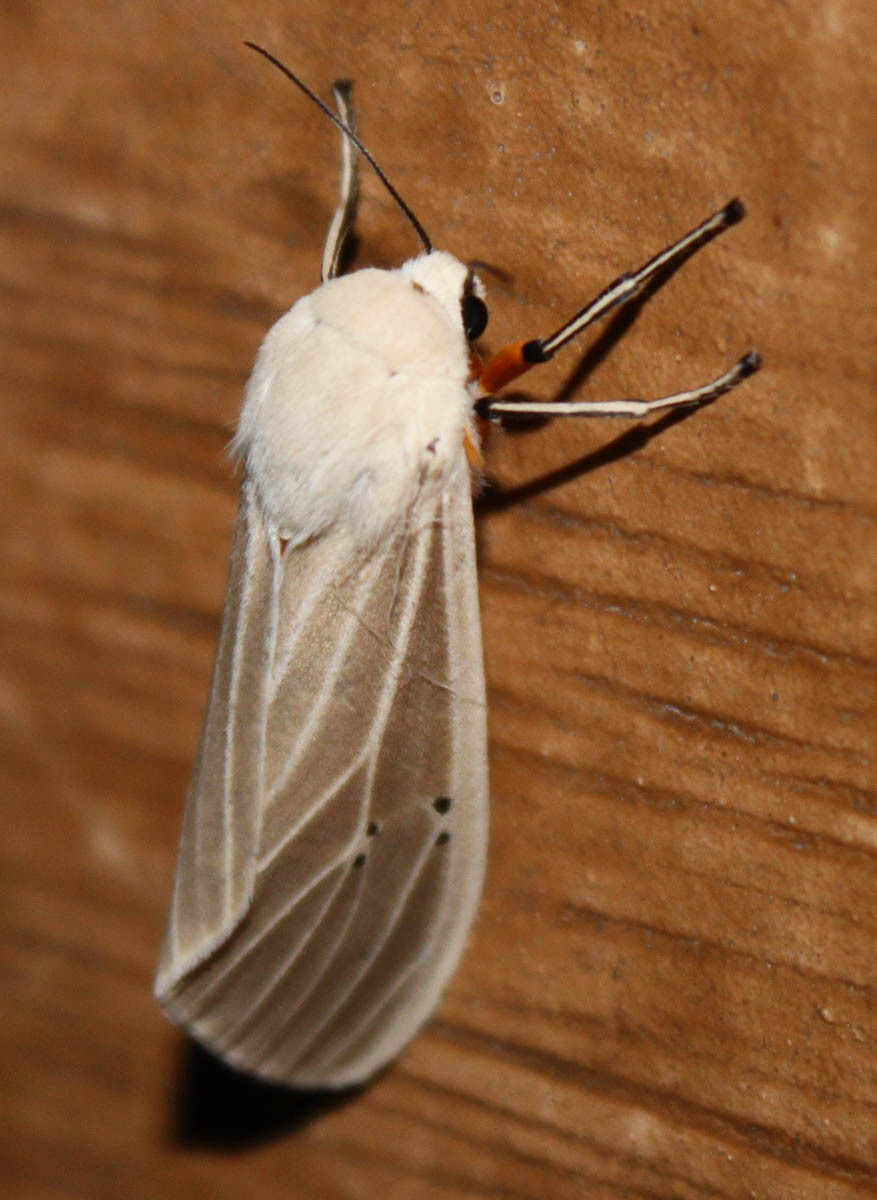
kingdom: Animalia
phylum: Arthropoda
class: Insecta
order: Lepidoptera
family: Erebidae
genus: Creatonotos
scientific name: Creatonotos transiens
